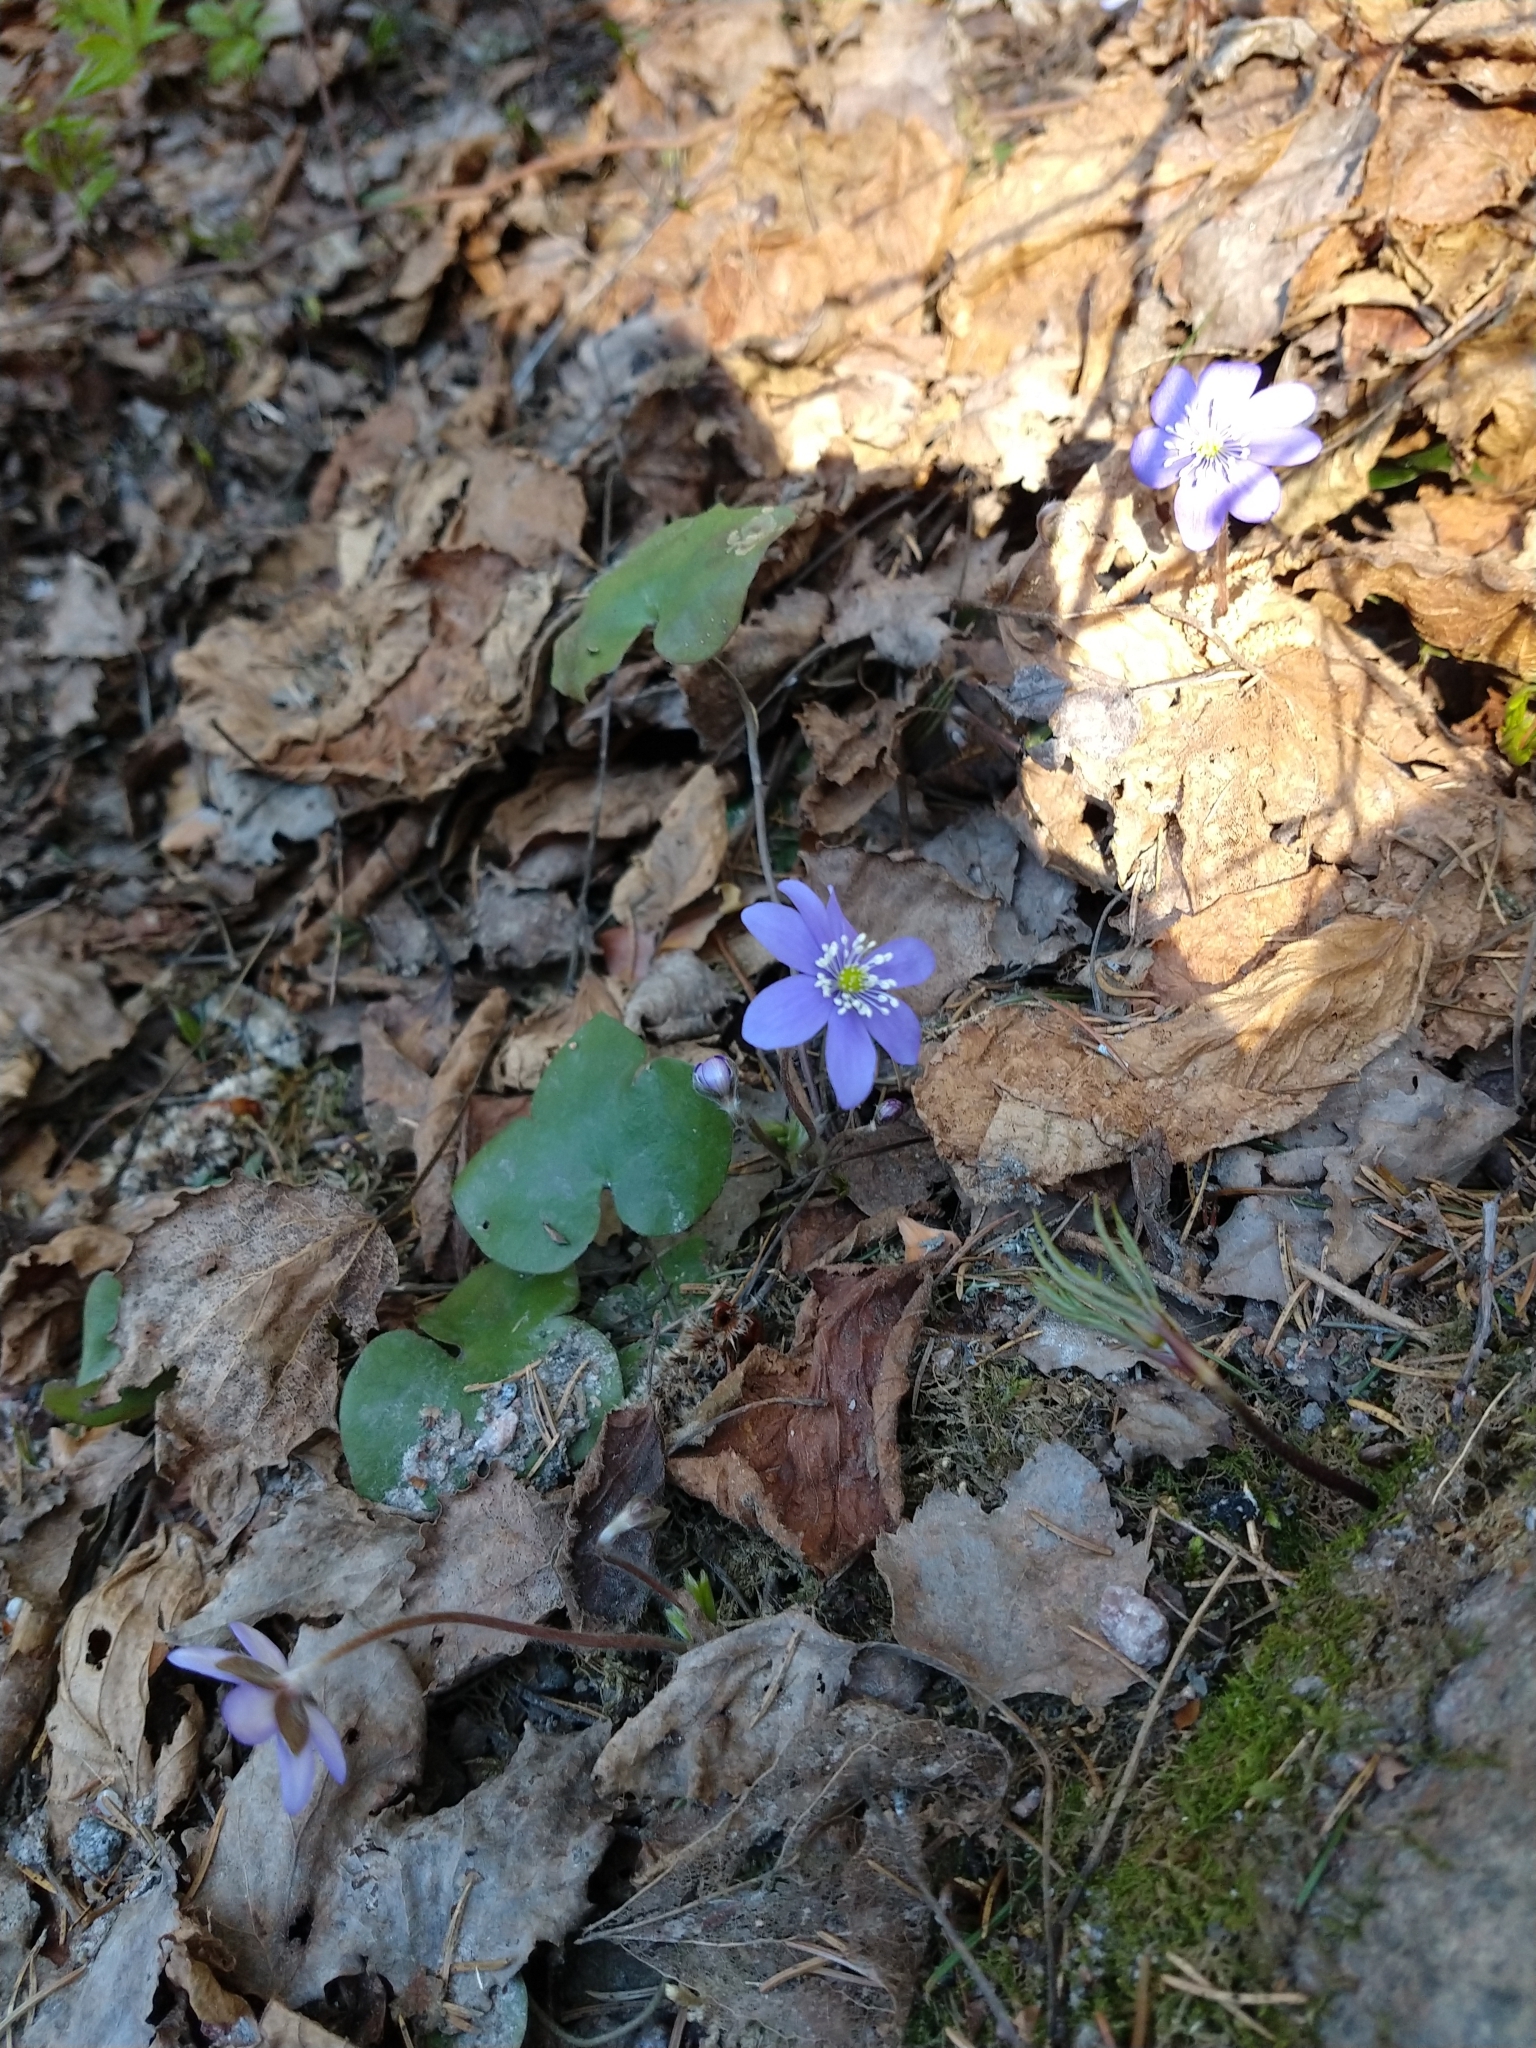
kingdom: Plantae
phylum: Tracheophyta
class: Magnoliopsida
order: Ranunculales
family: Ranunculaceae
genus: Hepatica
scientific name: Hepatica nobilis
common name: Liverleaf
